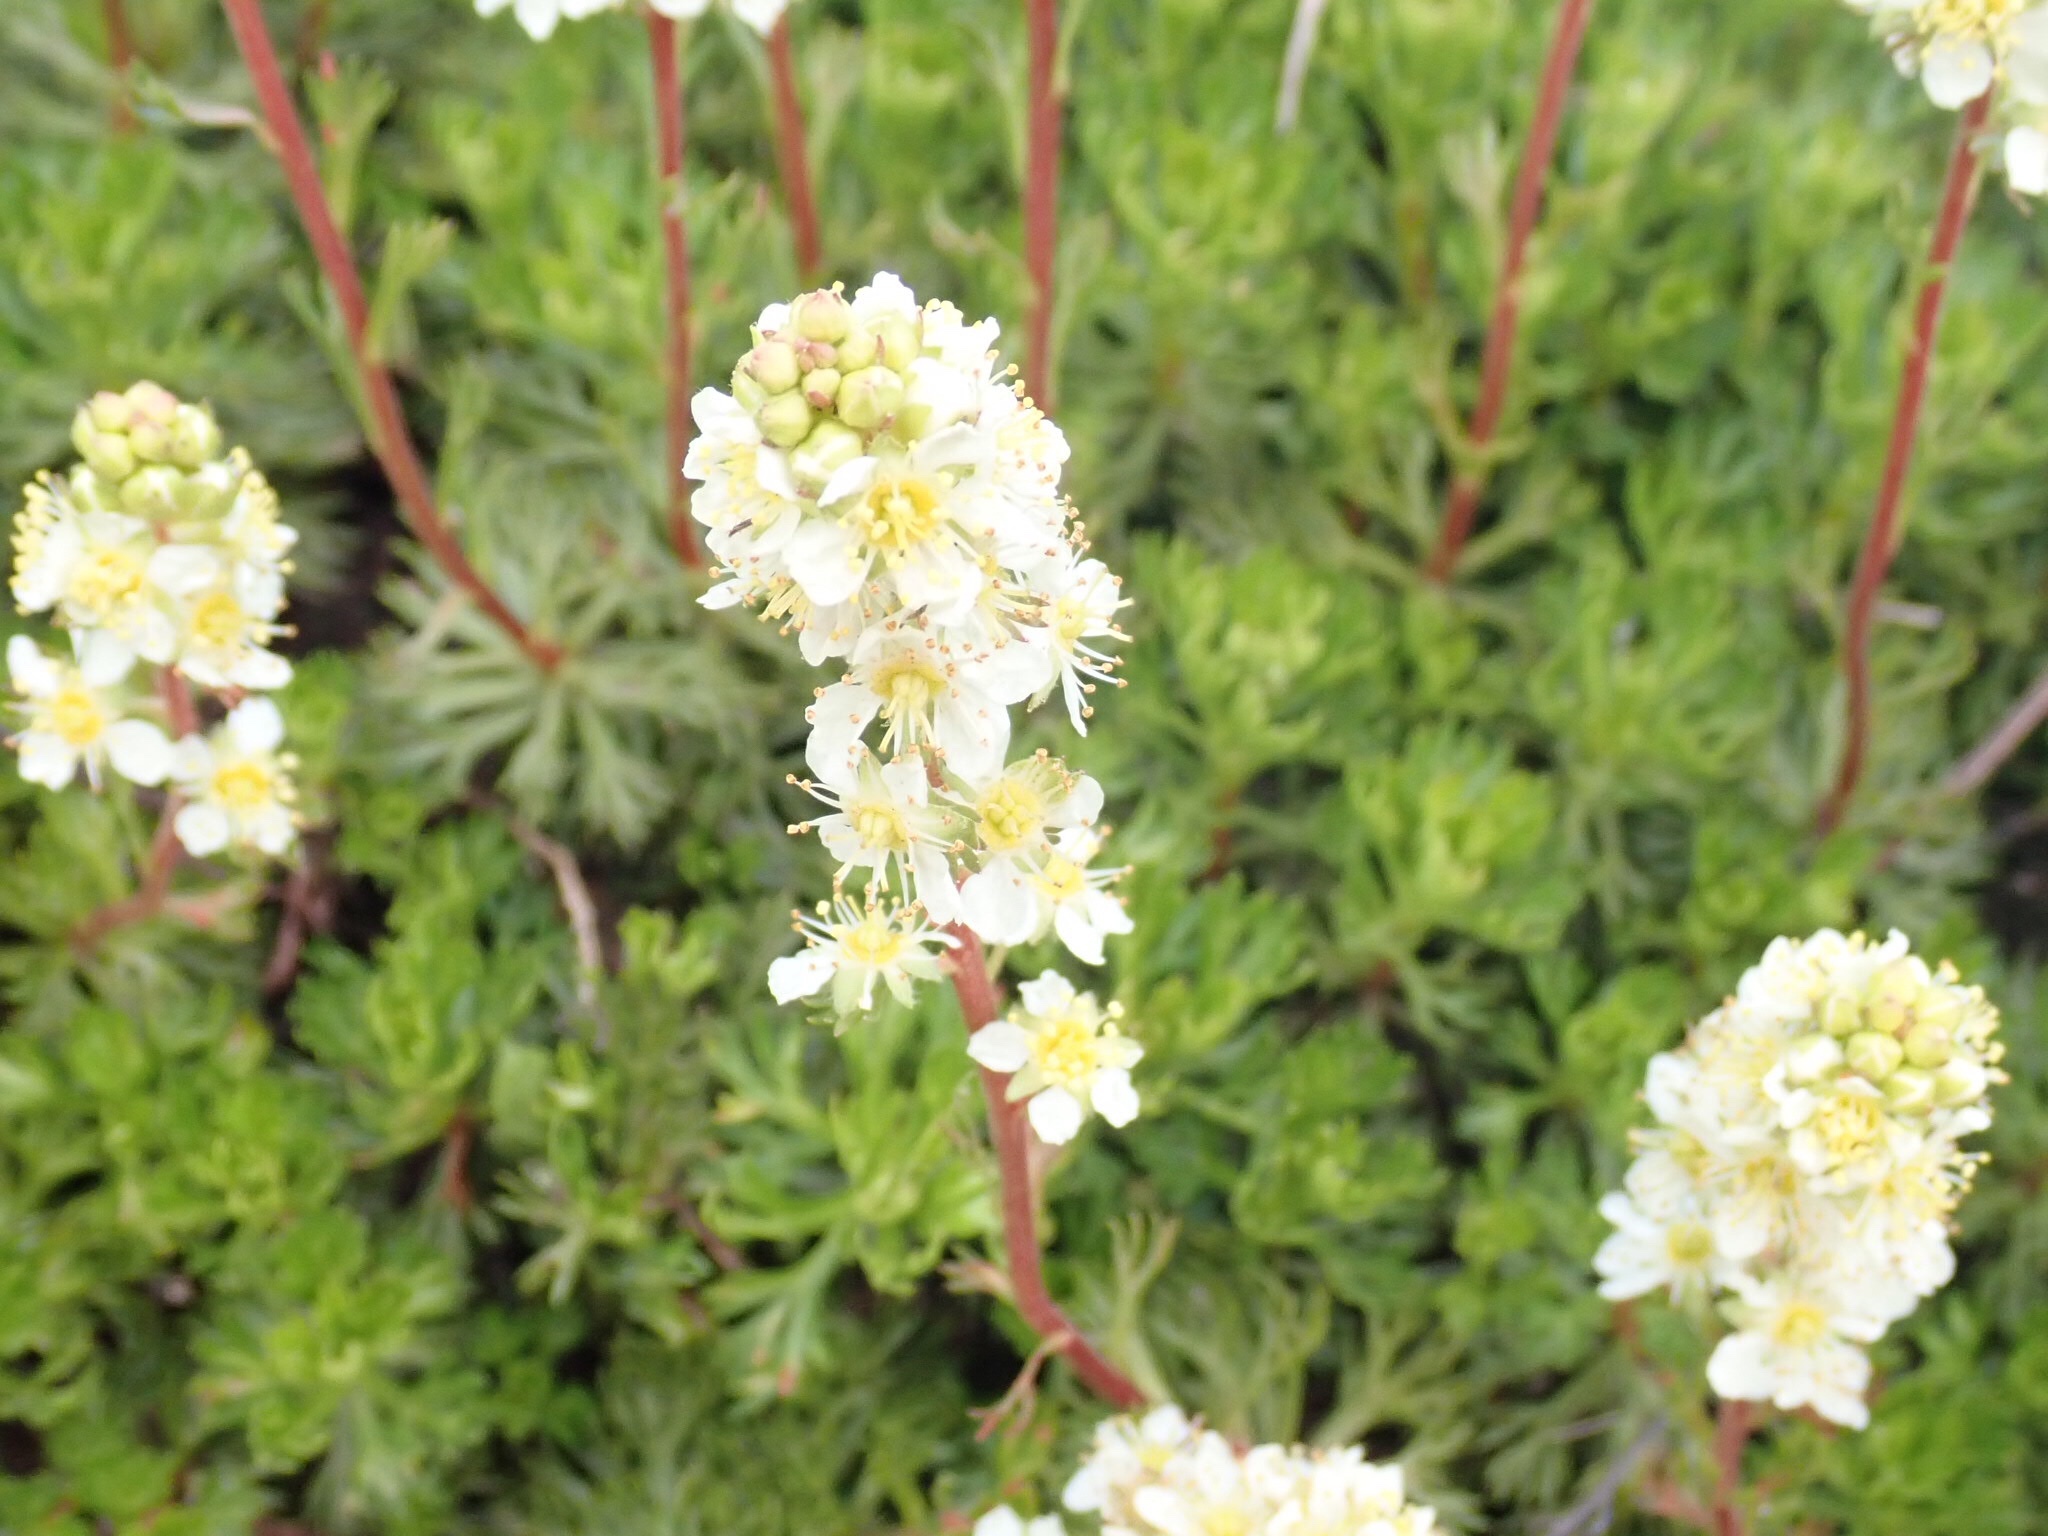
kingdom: Plantae
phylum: Tracheophyta
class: Magnoliopsida
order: Rosales
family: Rosaceae
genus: Luetkea
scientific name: Luetkea pectinata
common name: Partridgefoot
